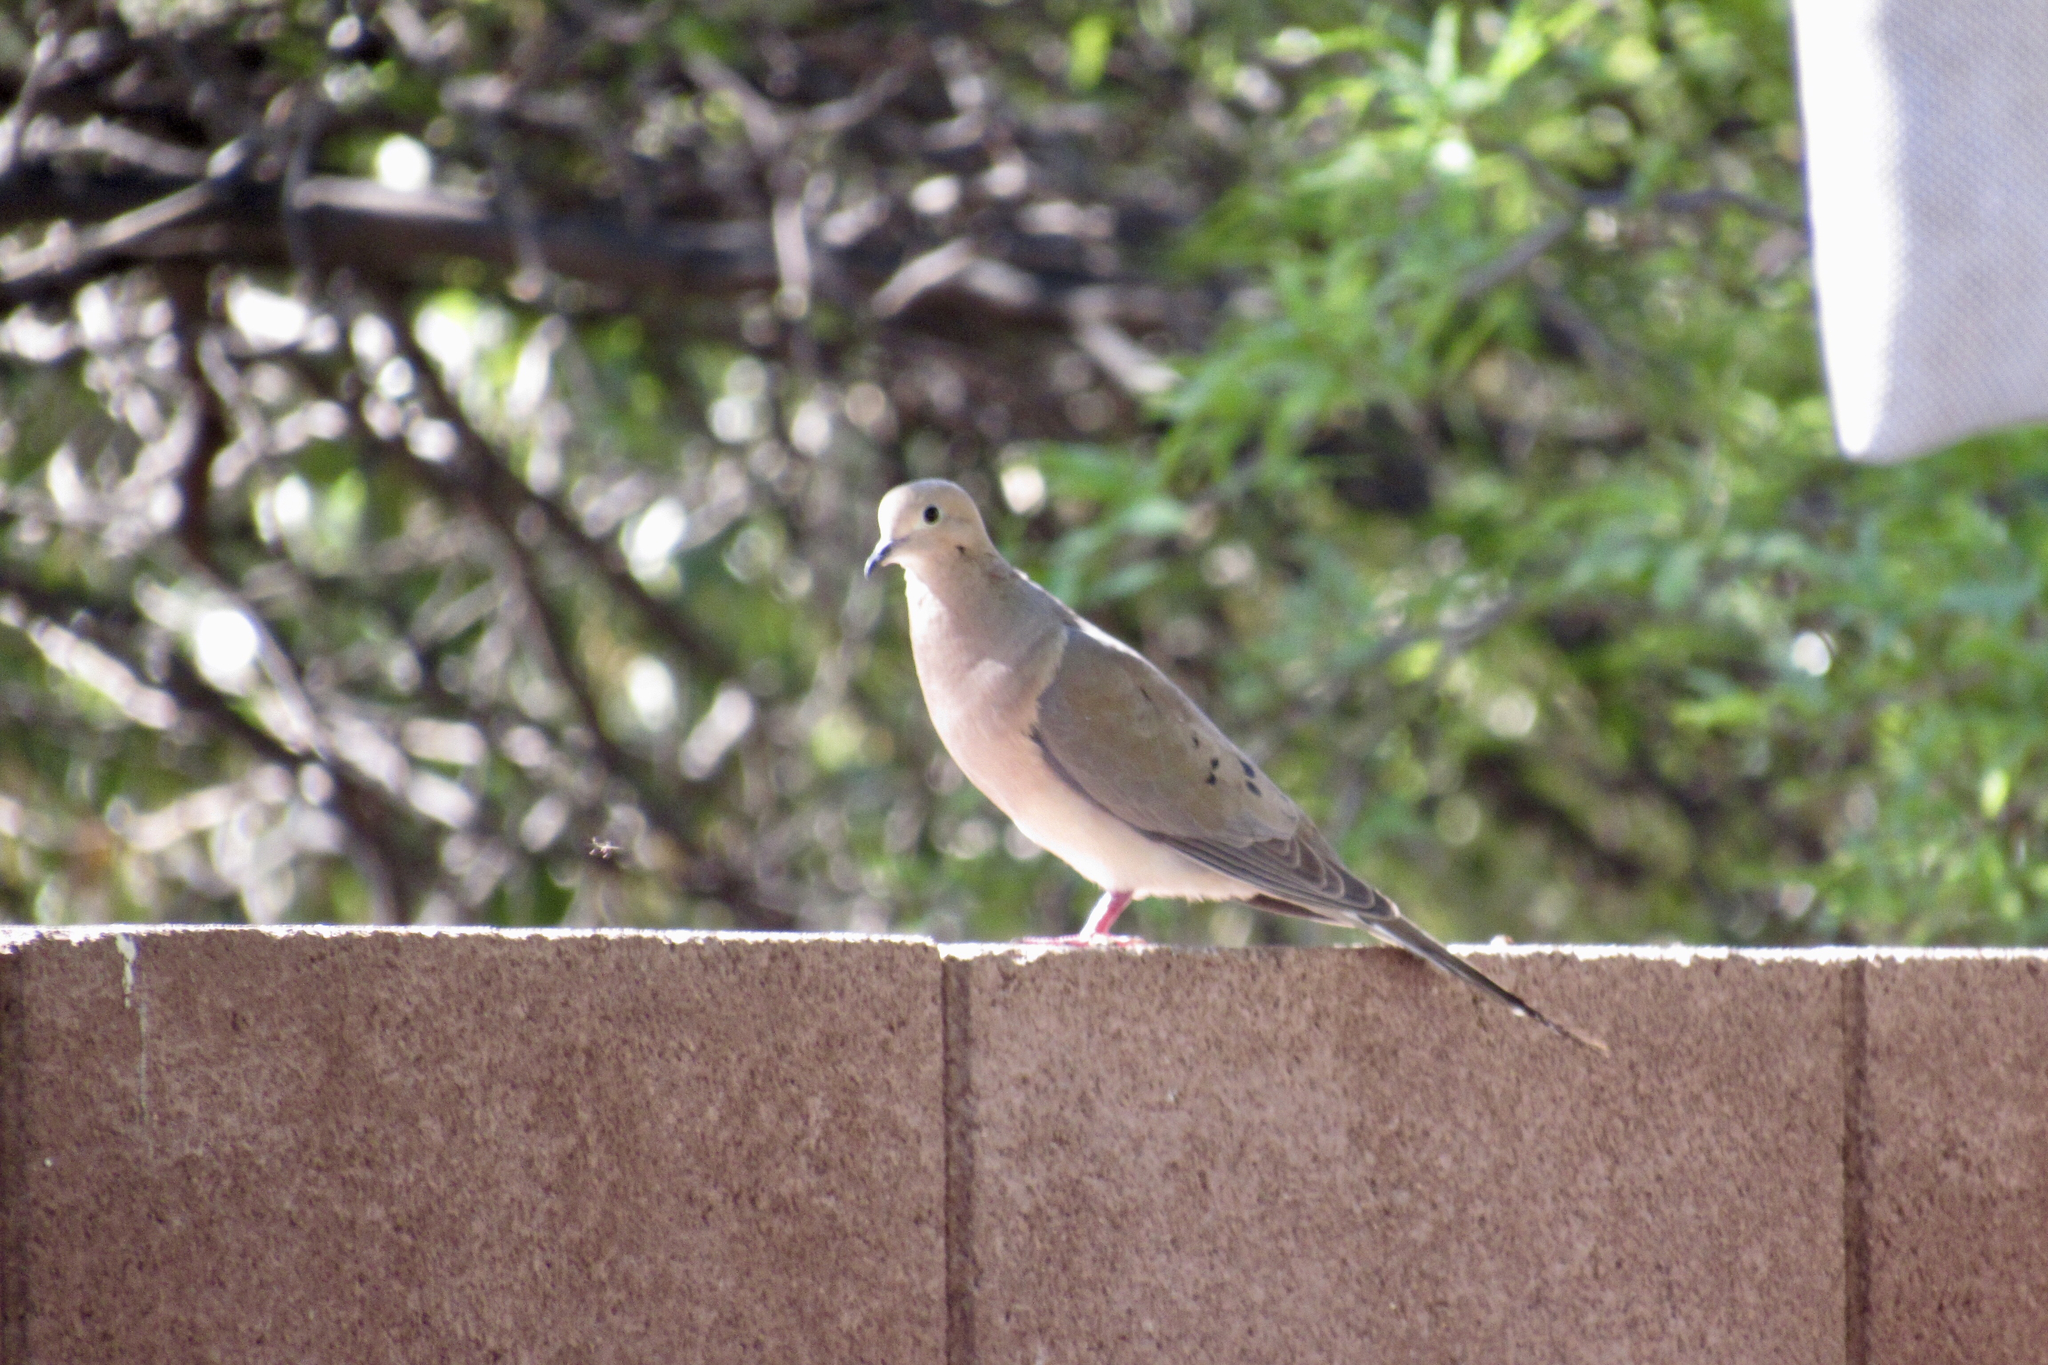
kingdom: Animalia
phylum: Chordata
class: Aves
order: Columbiformes
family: Columbidae
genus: Zenaida
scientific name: Zenaida macroura
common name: Mourning dove
